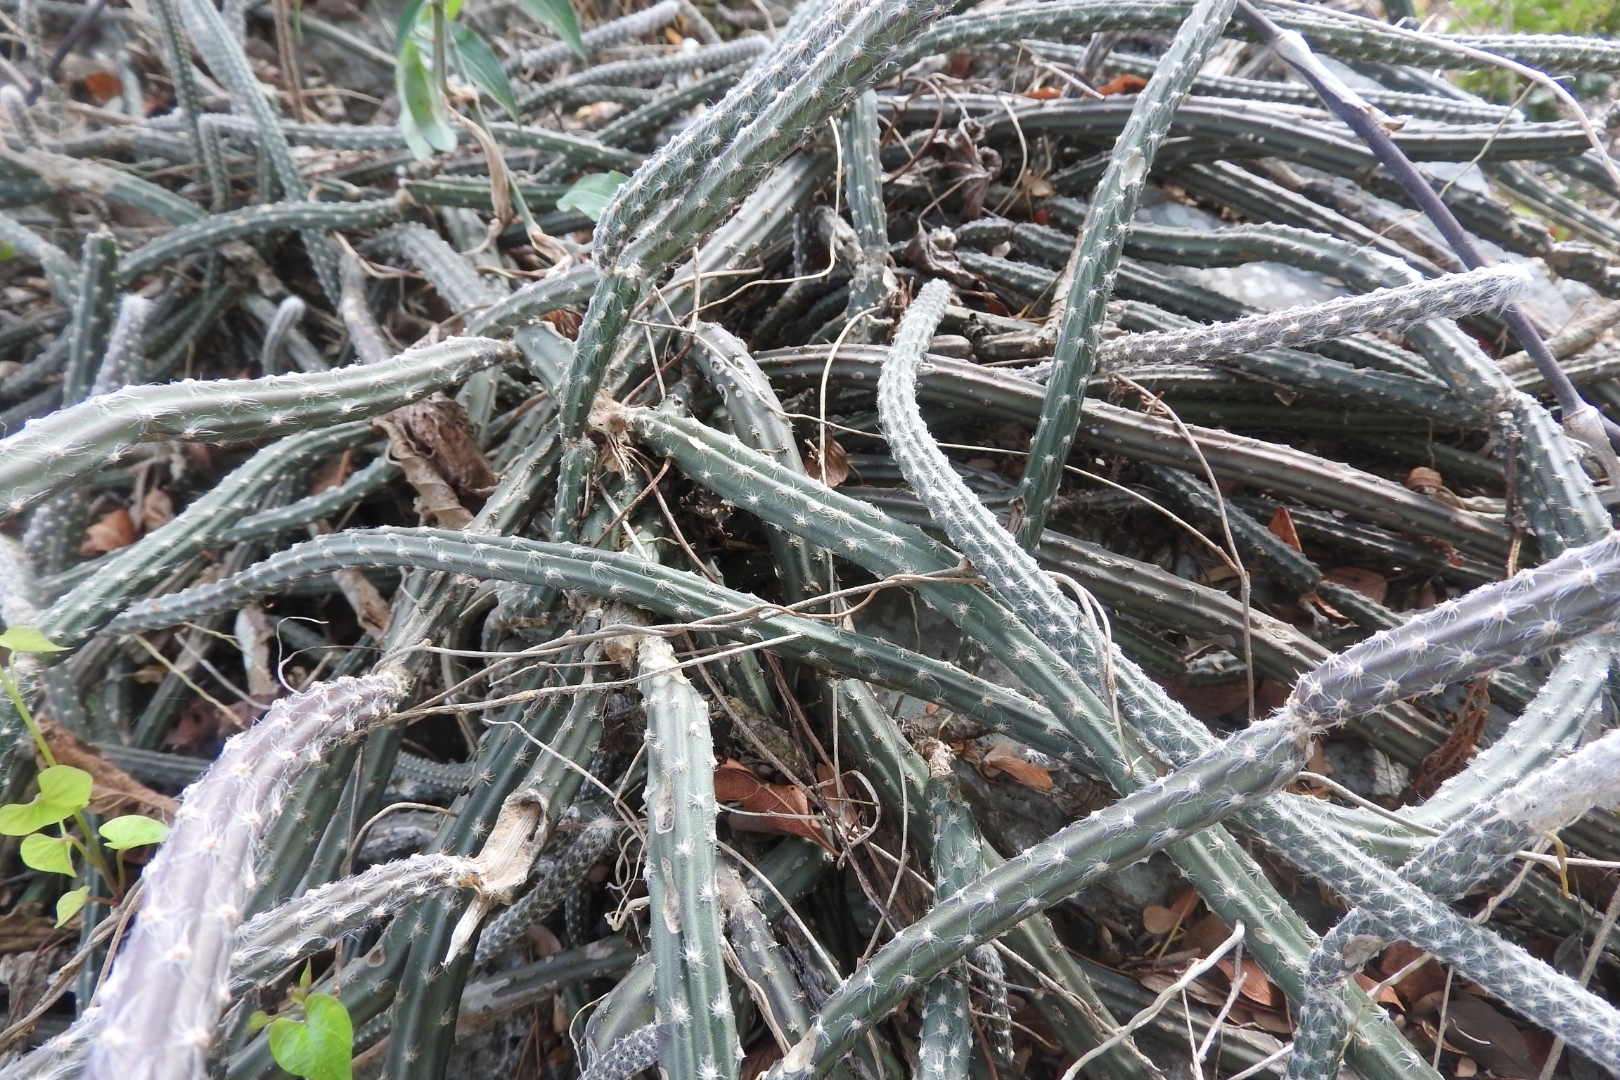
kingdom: Plantae
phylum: Tracheophyta
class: Magnoliopsida
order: Caryophyllales
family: Cactaceae
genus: Selenicereus
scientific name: Selenicereus grandiflorus
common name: Queen of the night
